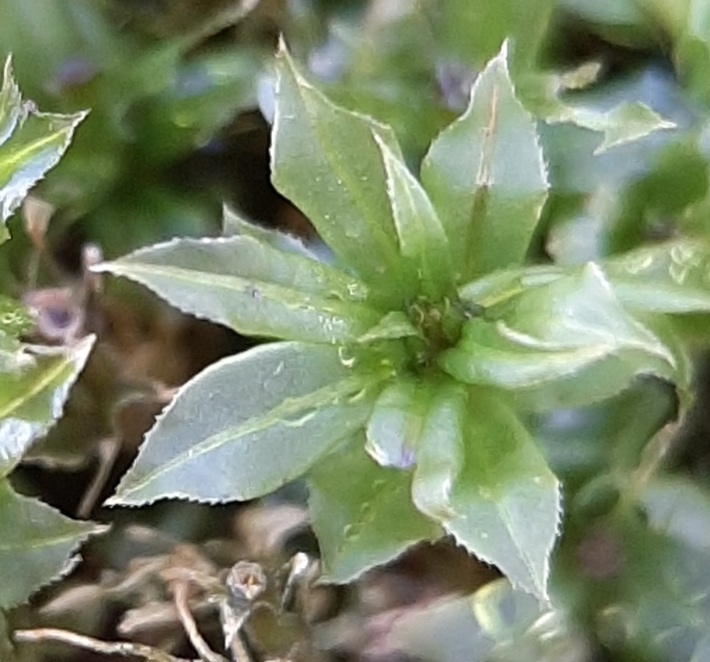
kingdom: Plantae
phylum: Bryophyta
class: Bryopsida
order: Bryales
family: Mniaceae
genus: Plagiomnium
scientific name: Plagiomnium cuspidatum
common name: Woodsy leafy moss
